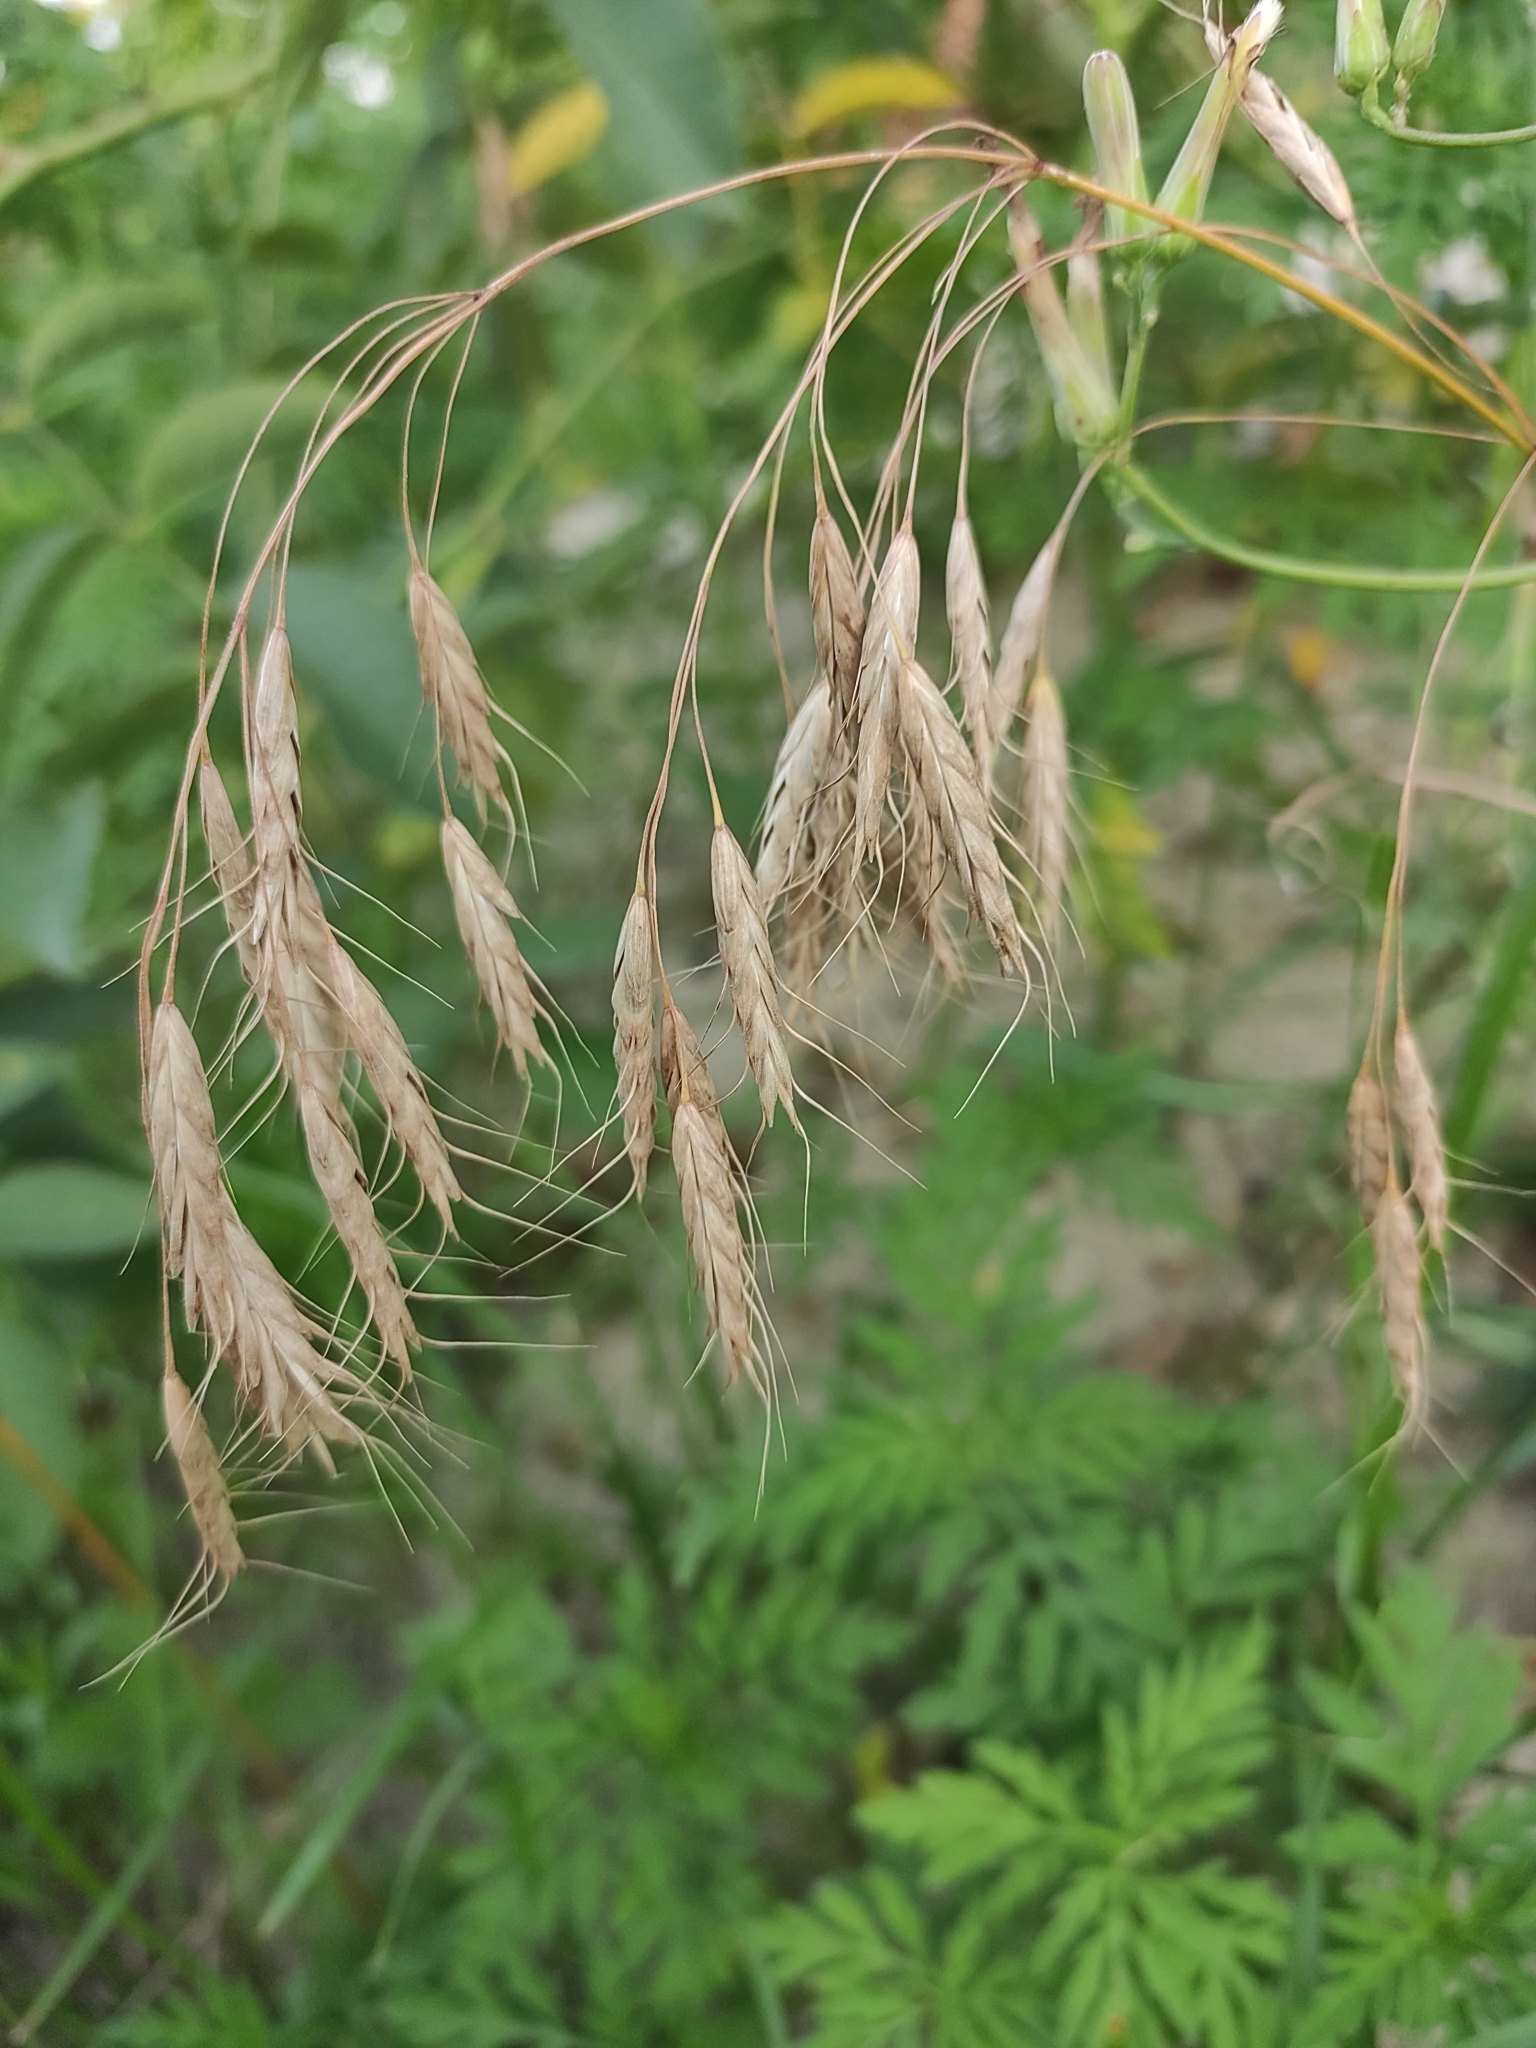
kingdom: Plantae
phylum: Tracheophyta
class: Liliopsida
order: Poales
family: Poaceae
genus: Bromus
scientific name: Bromus japonicus
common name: Japanese brome
